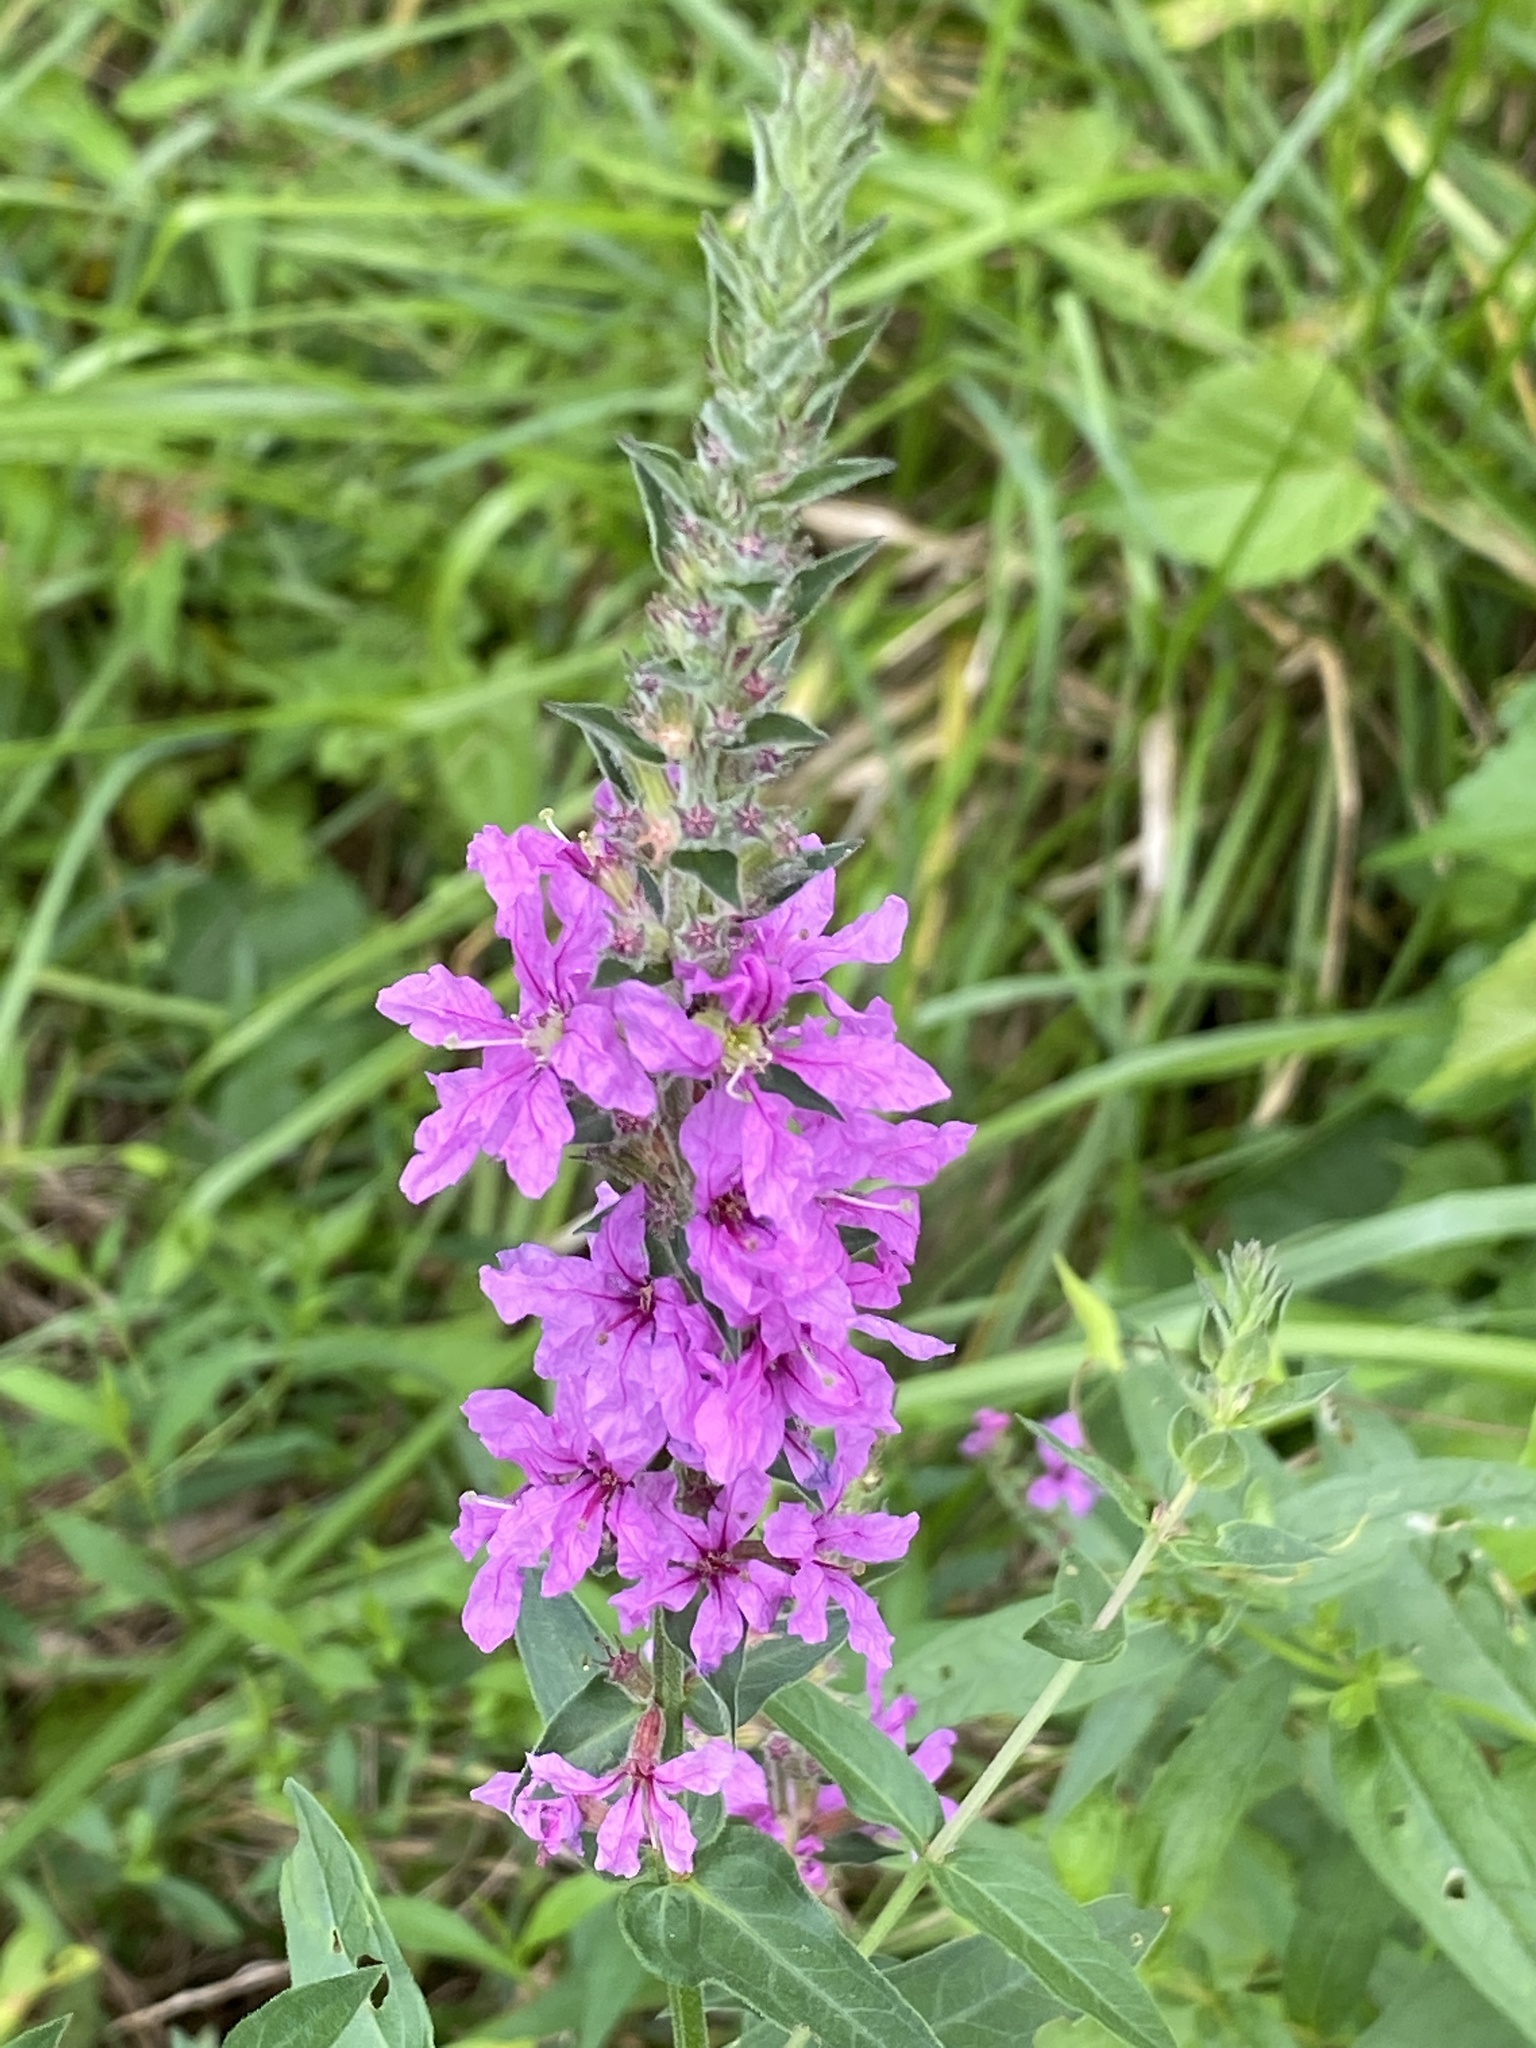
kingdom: Plantae
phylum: Tracheophyta
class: Magnoliopsida
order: Myrtales
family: Lythraceae
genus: Lythrum
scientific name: Lythrum salicaria
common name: Purple loosestrife
